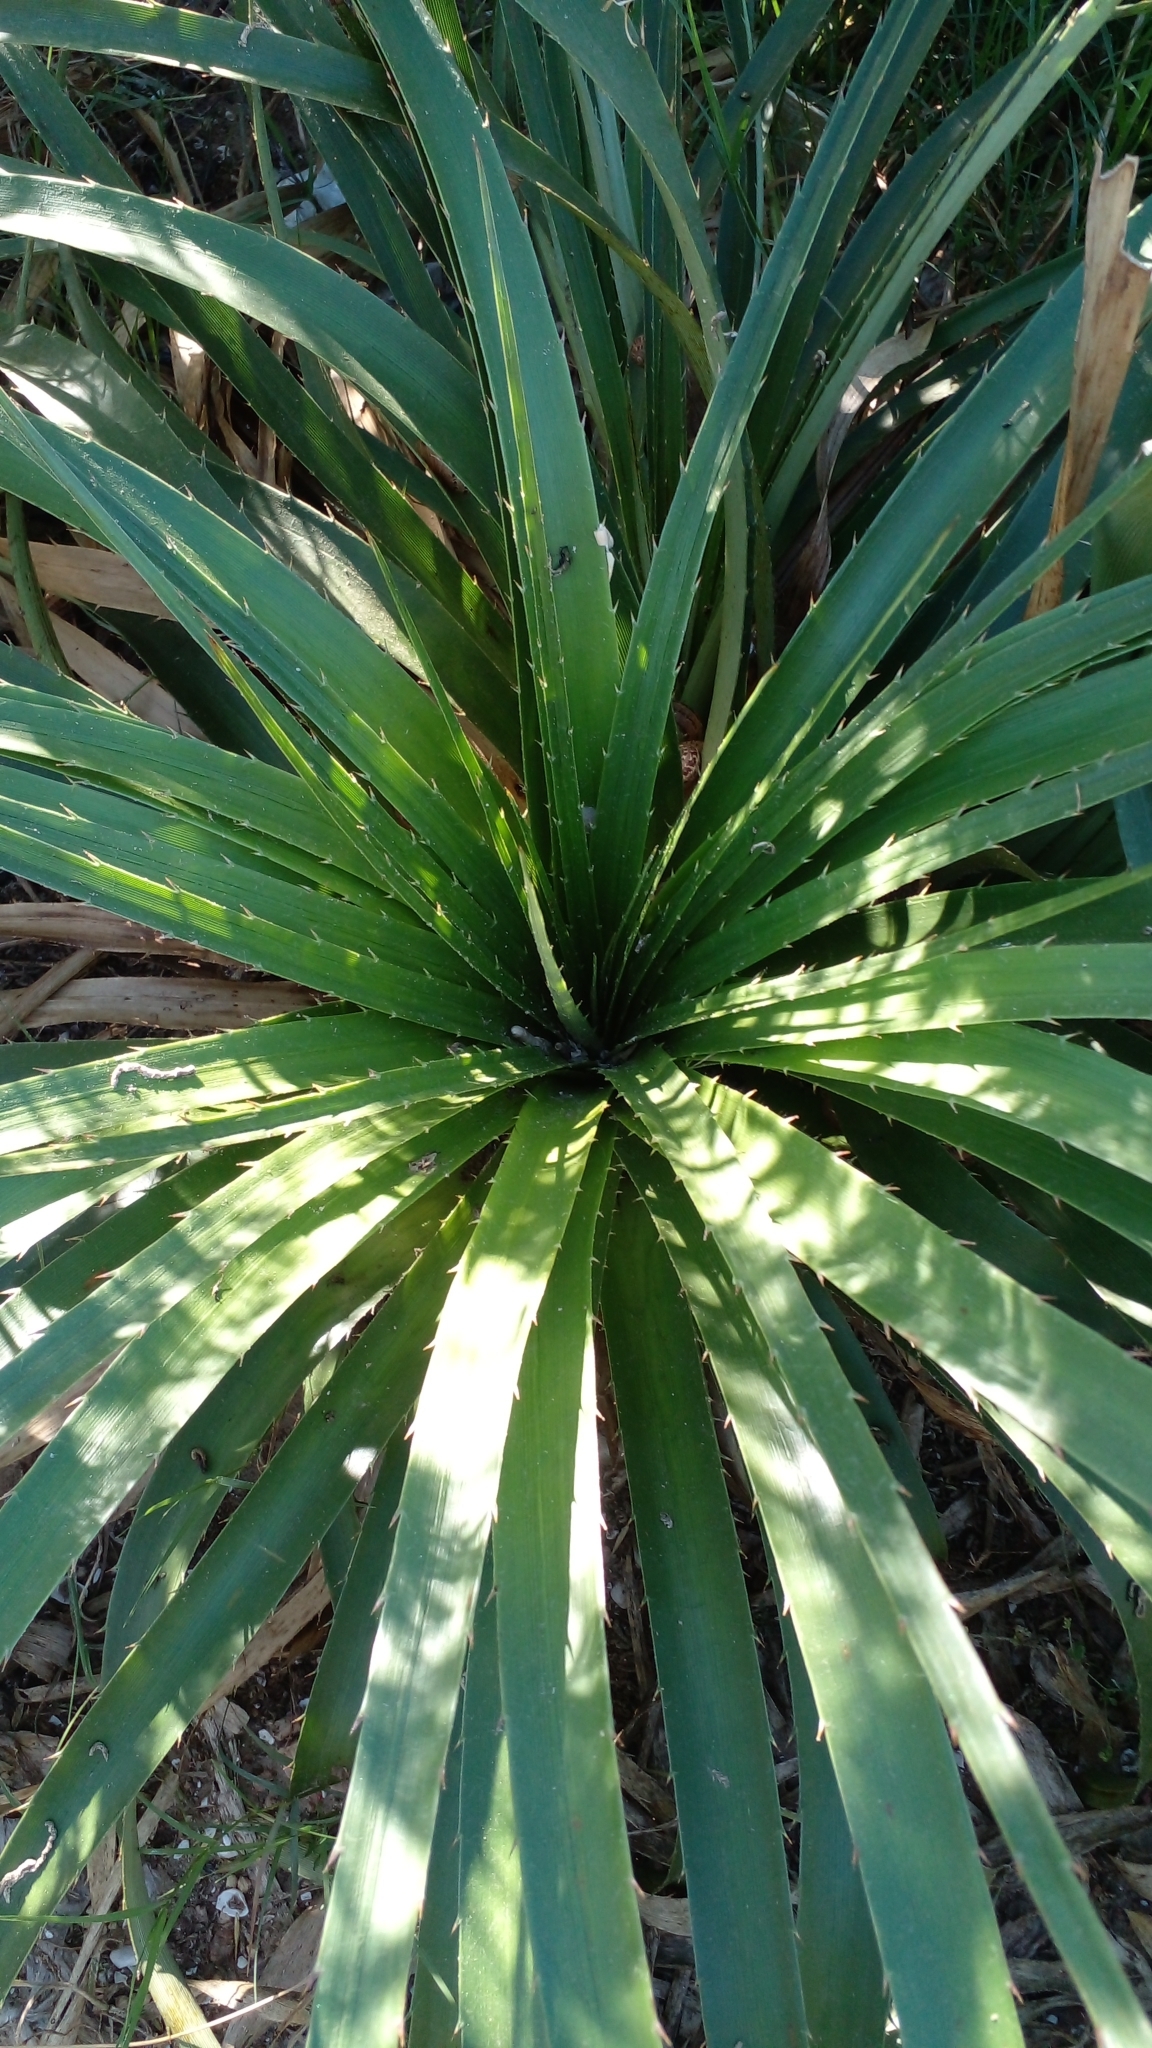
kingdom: Plantae
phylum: Tracheophyta
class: Magnoliopsida
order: Apiales
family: Apiaceae
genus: Eryngium
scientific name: Eryngium horridum
